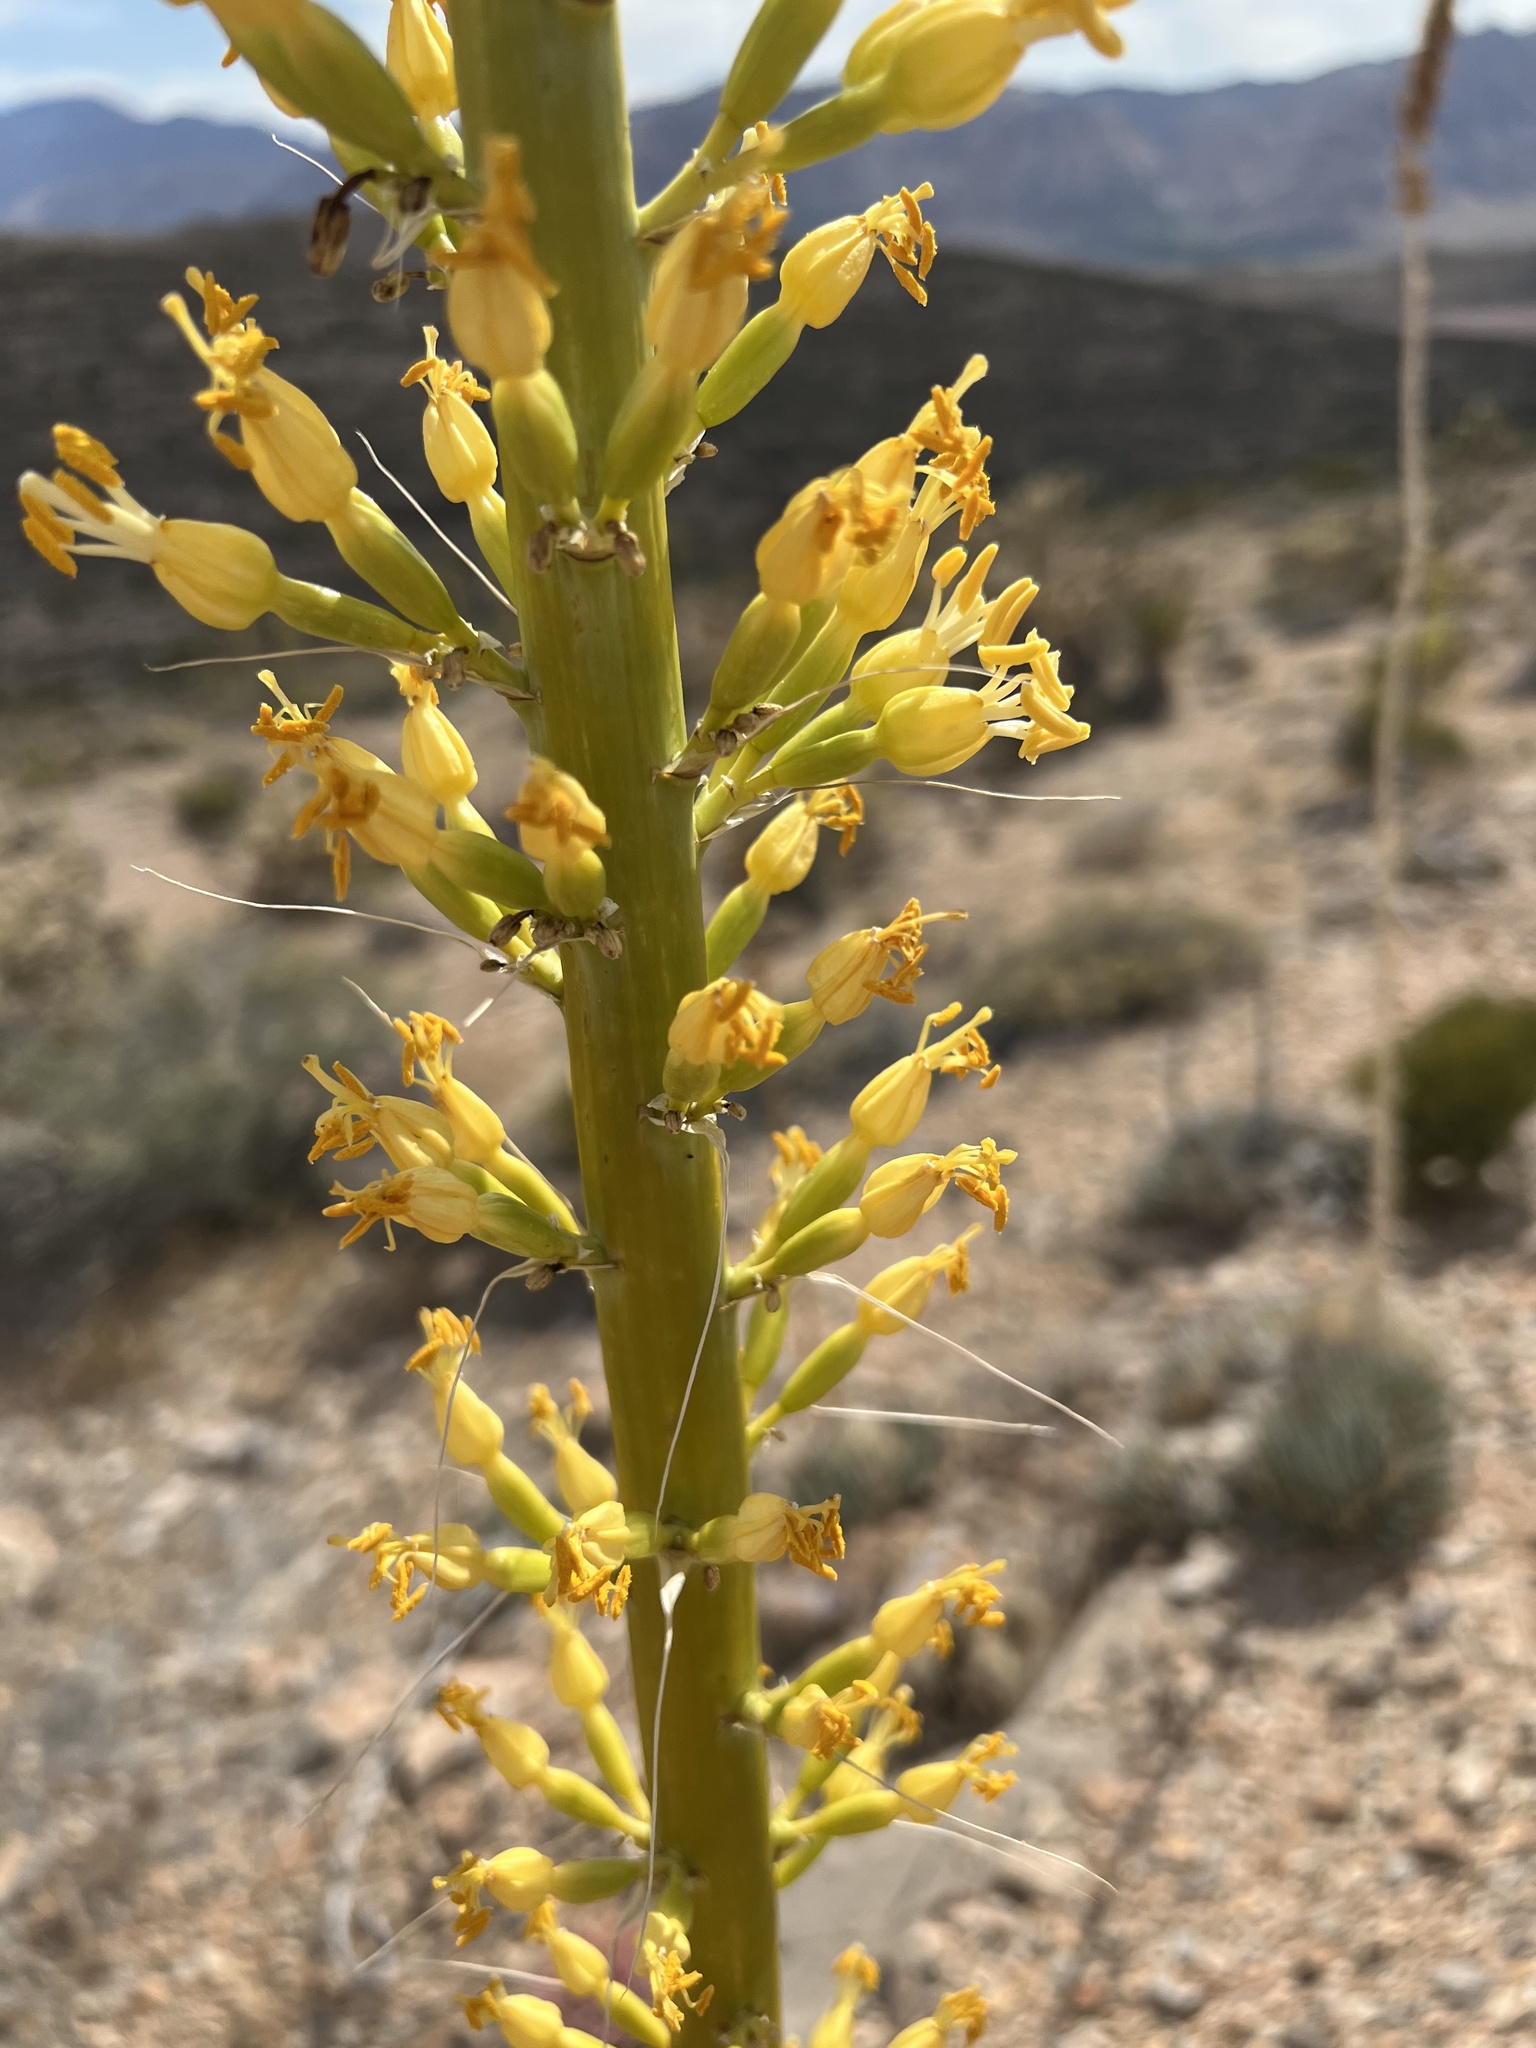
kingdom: Plantae
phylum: Tracheophyta
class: Liliopsida
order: Asparagales
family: Asparagaceae
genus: Agave
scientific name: Agave utahensis
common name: Utah agave
